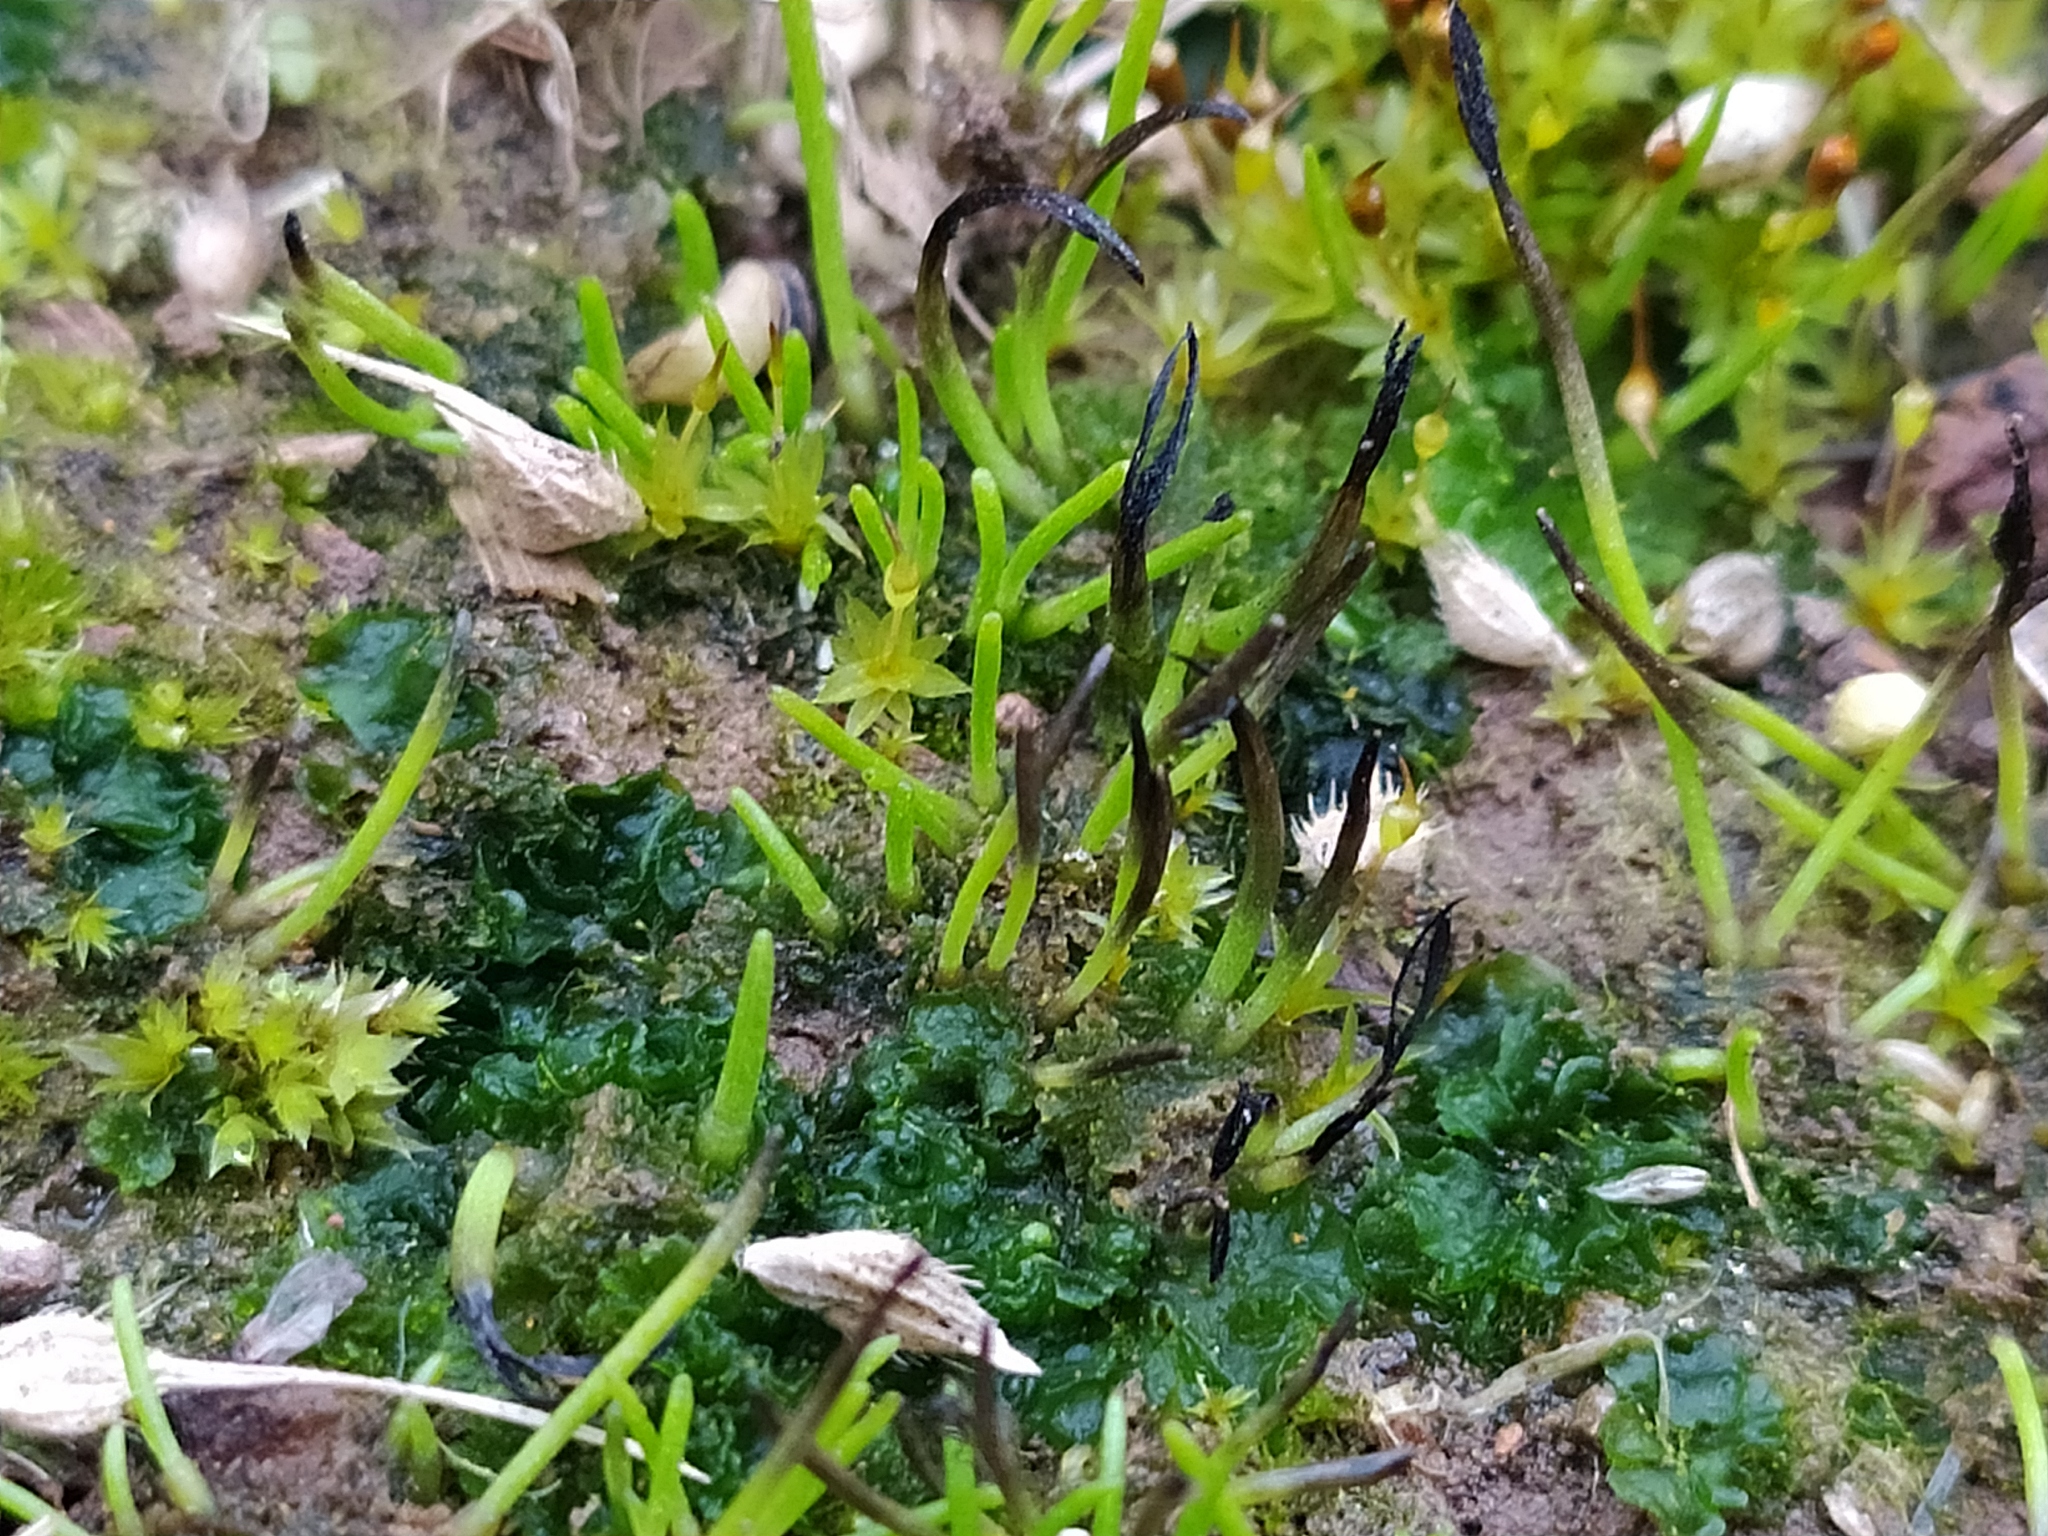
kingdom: Plantae
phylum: Anthocerotophyta
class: Anthocerotopsida
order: Notothyladales
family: Notothyladaceae
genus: Phaeoceros
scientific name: Phaeoceros carolinianus
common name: Carolina hornwort
